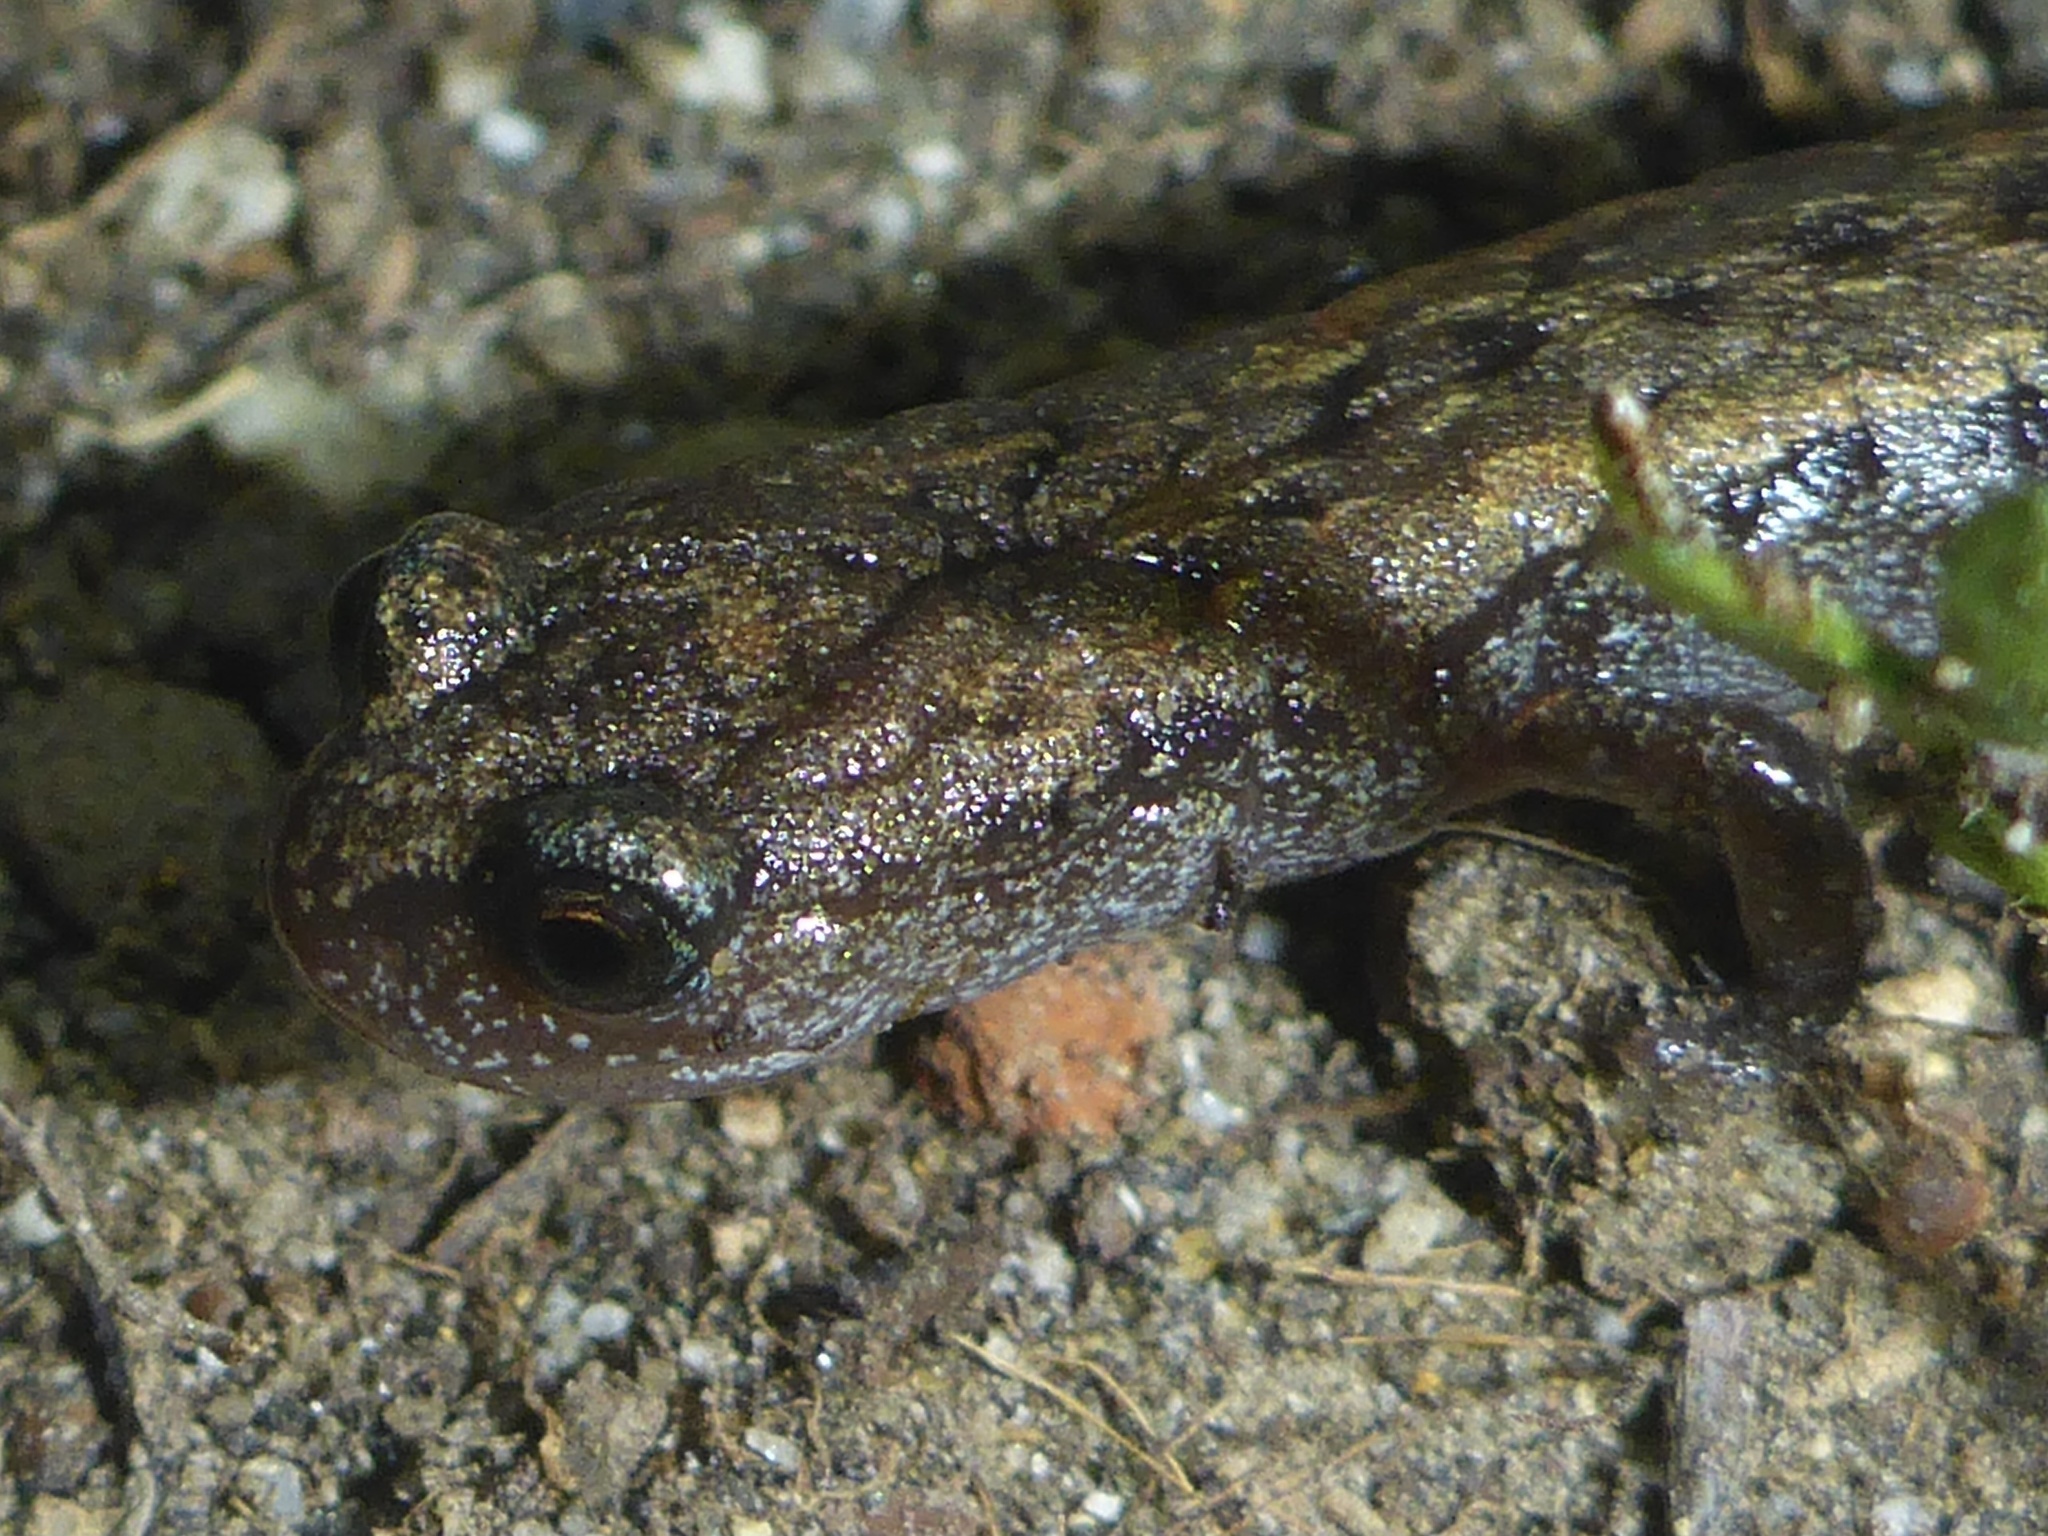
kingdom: Animalia
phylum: Chordata
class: Amphibia
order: Caudata
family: Plethodontidae
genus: Batrachoseps
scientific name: Batrachoseps attenuatus
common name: California slender salamander
